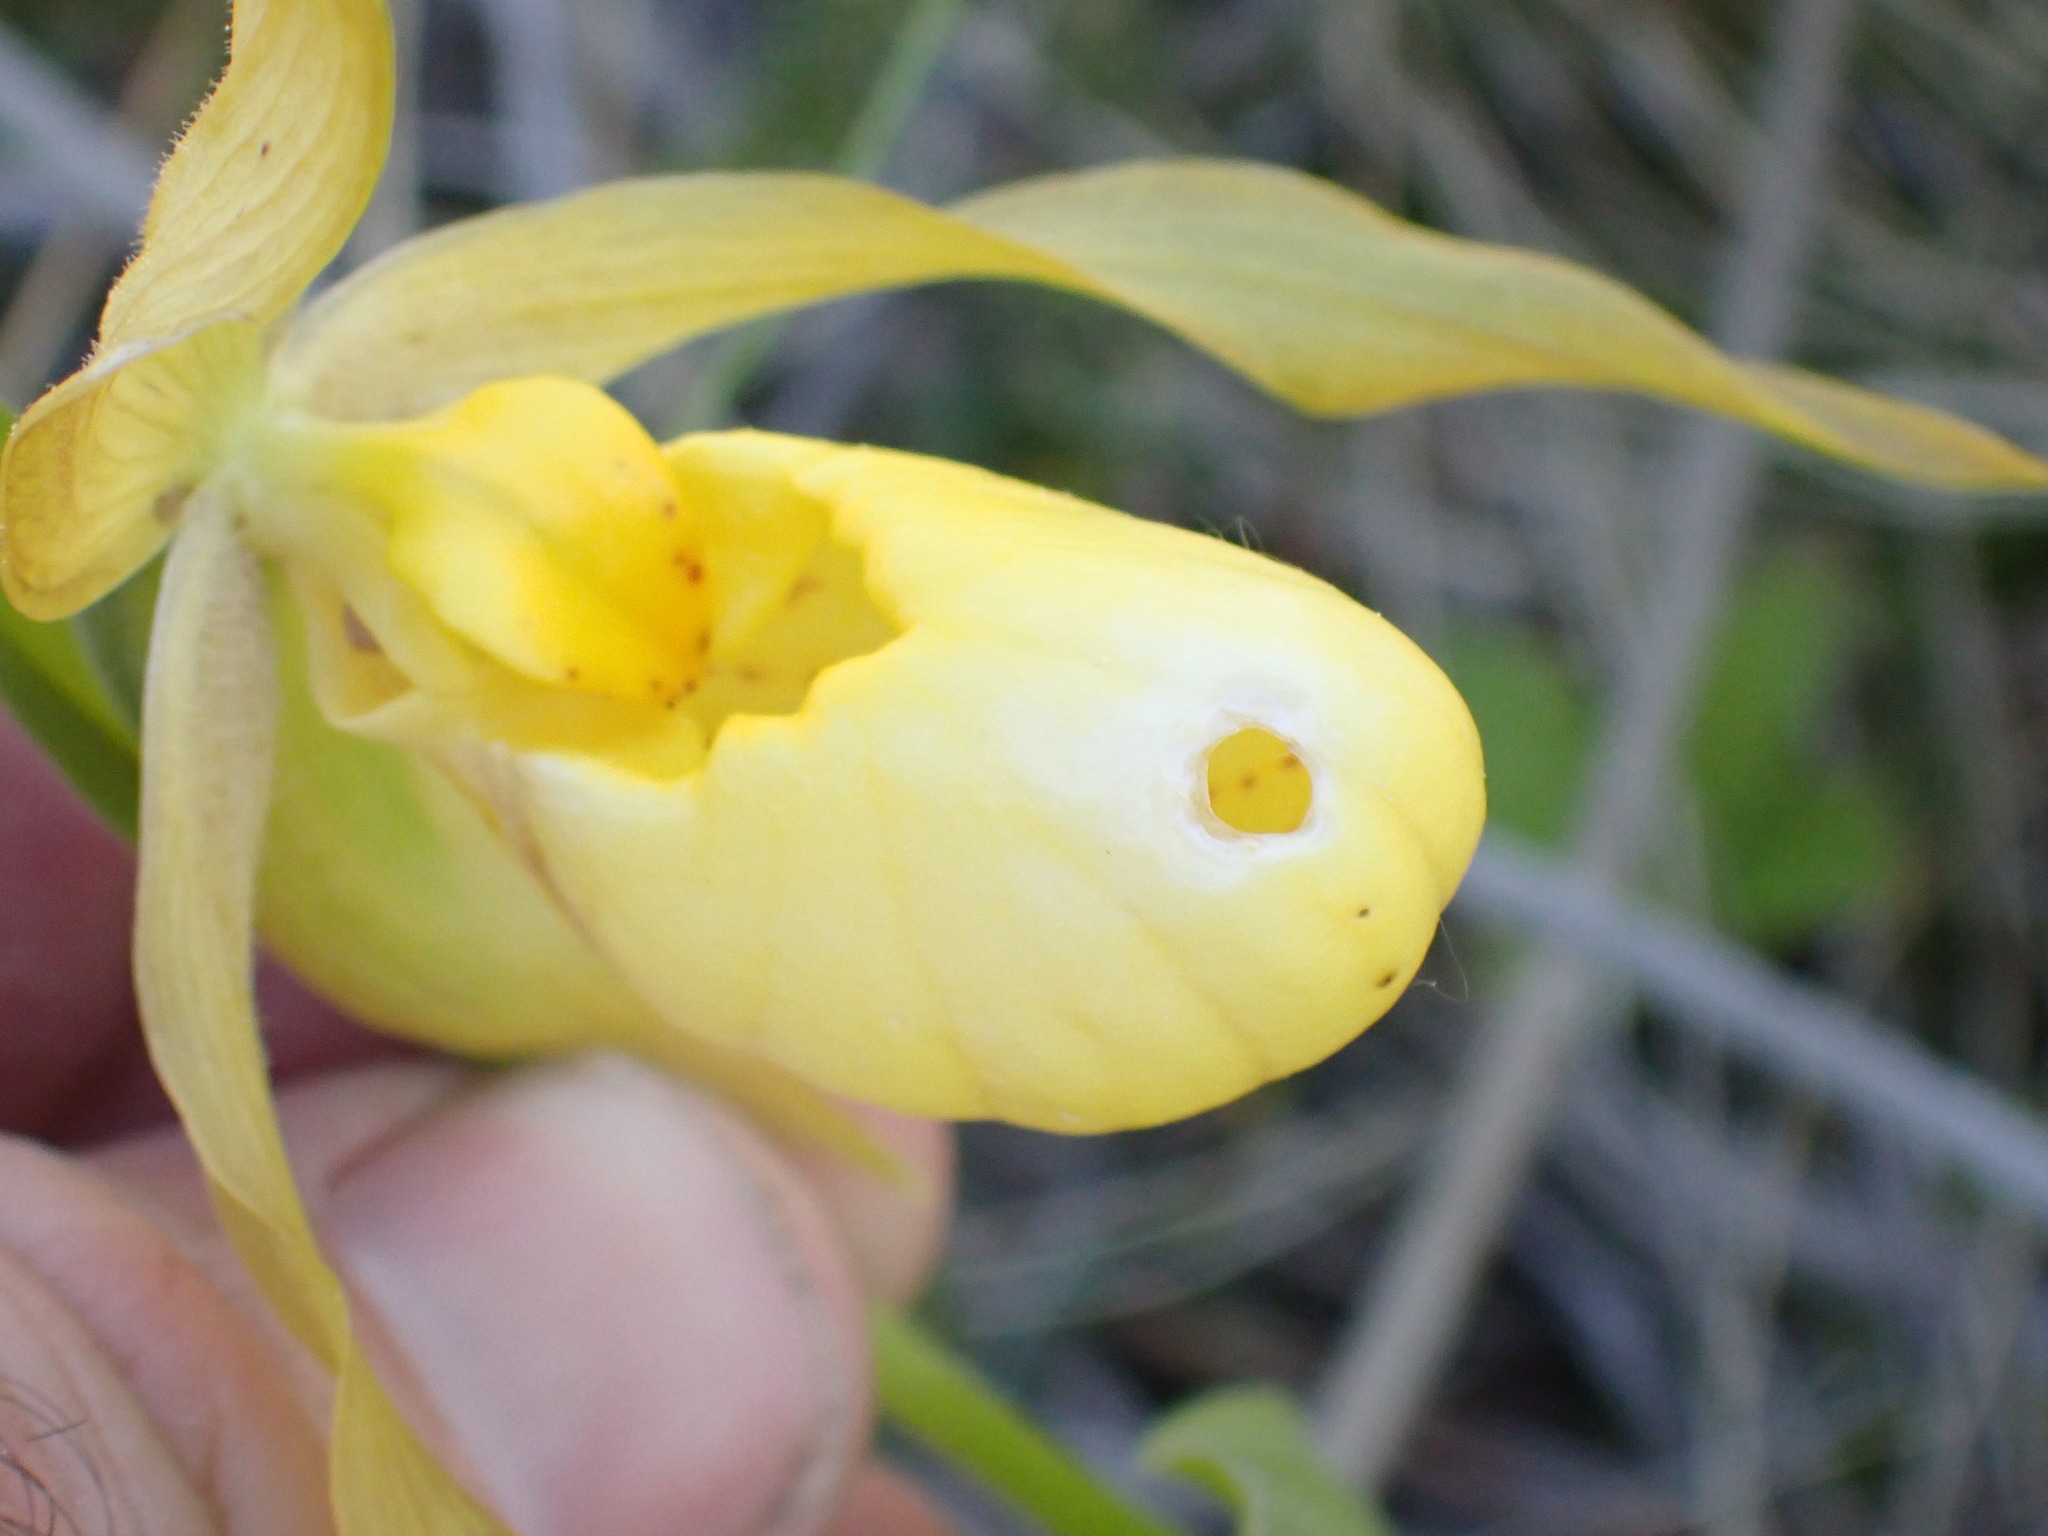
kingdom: Plantae
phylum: Tracheophyta
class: Liliopsida
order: Asparagales
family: Orchidaceae
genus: Cypripedium
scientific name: Cypripedium parviflorum
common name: American yellow lady's-slipper
